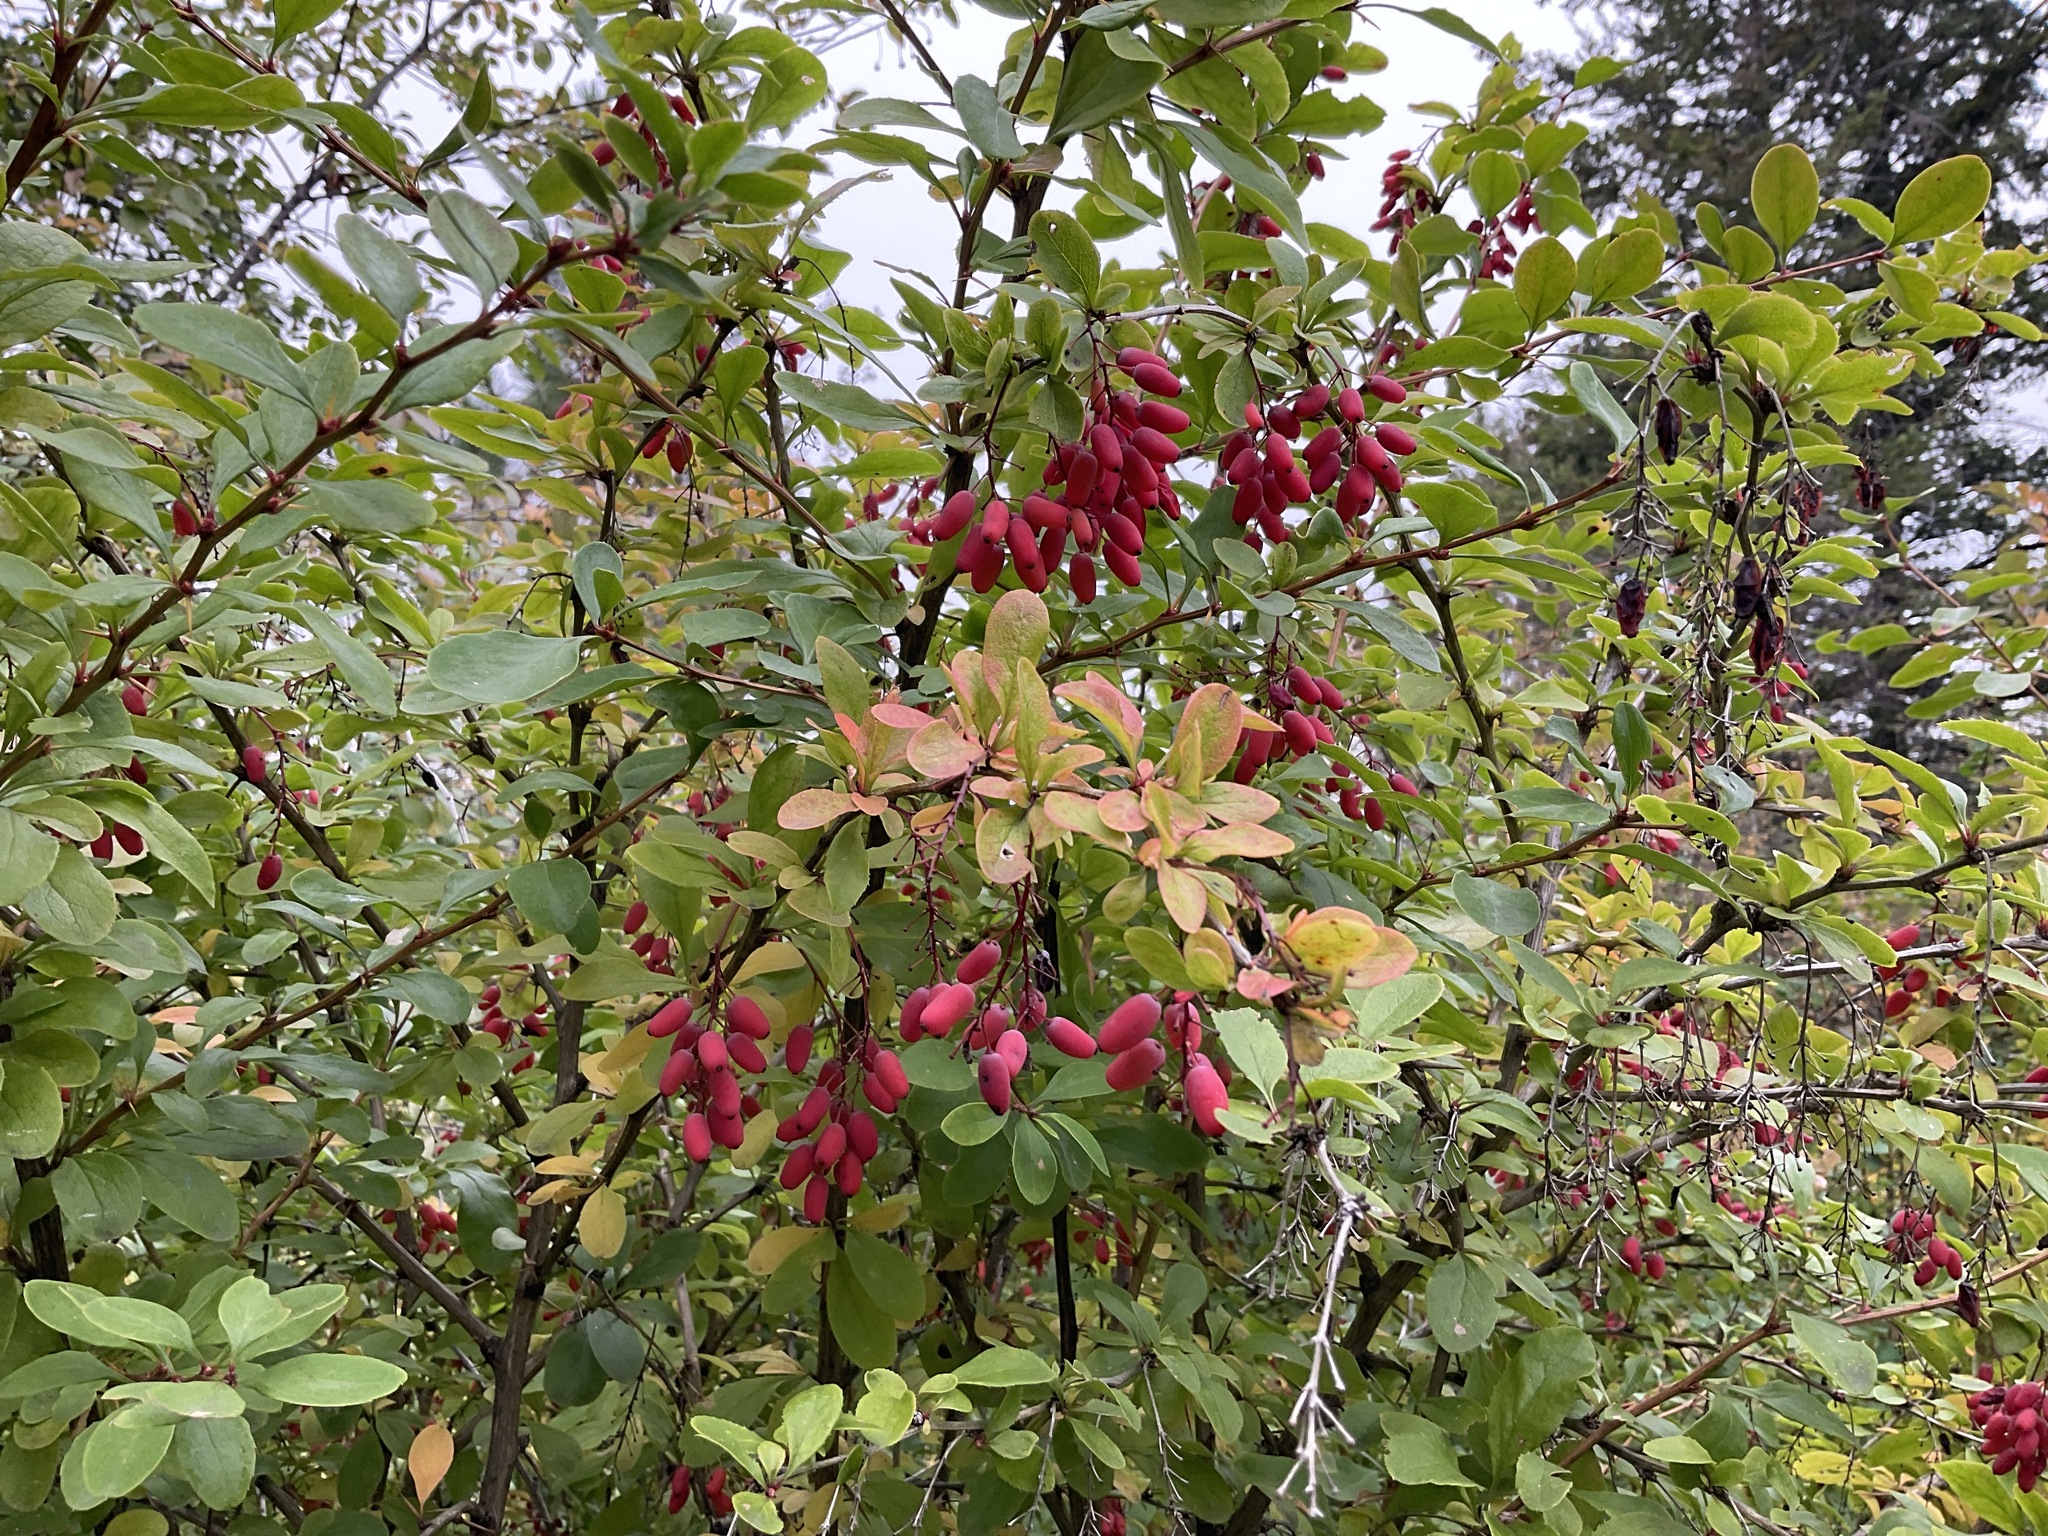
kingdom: Plantae
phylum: Tracheophyta
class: Magnoliopsida
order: Ranunculales
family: Berberidaceae
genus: Berberis
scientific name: Berberis vulgaris
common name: Barberry
